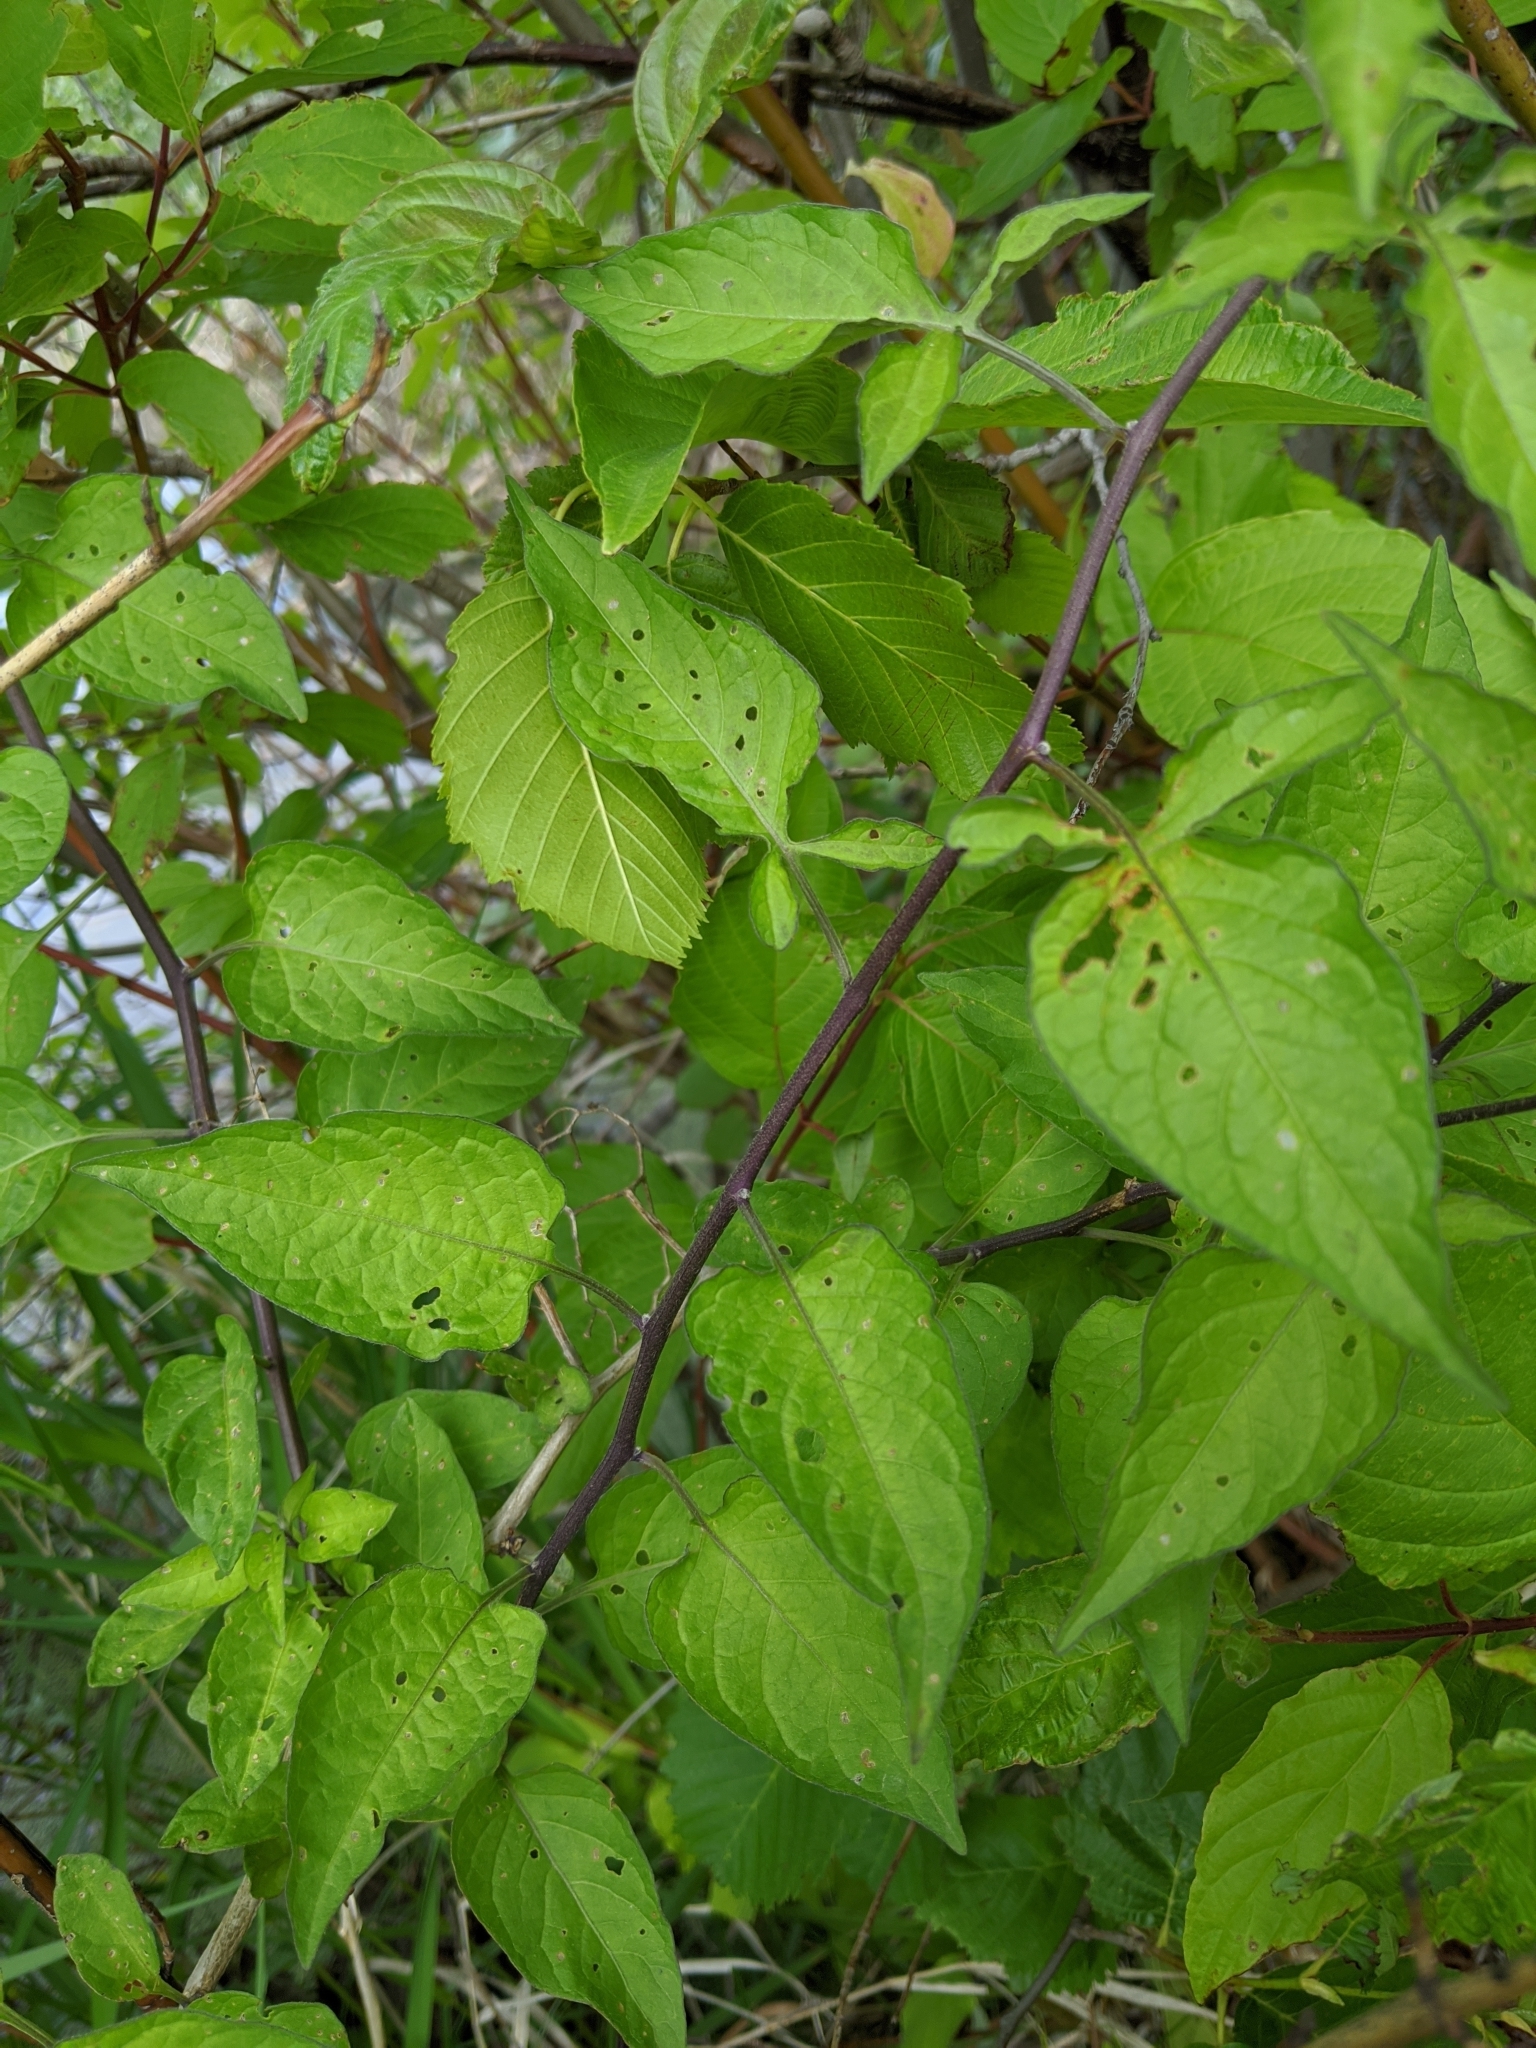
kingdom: Plantae
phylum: Tracheophyta
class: Magnoliopsida
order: Solanales
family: Solanaceae
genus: Solanum
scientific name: Solanum dulcamara
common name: Climbing nightshade
